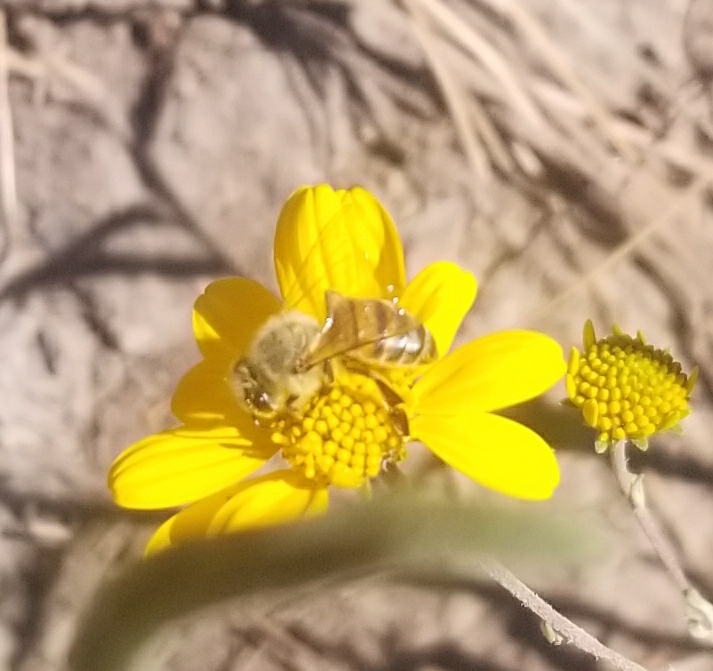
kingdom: Animalia
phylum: Arthropoda
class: Insecta
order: Hymenoptera
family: Apidae
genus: Apis
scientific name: Apis mellifera
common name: Honey bee
